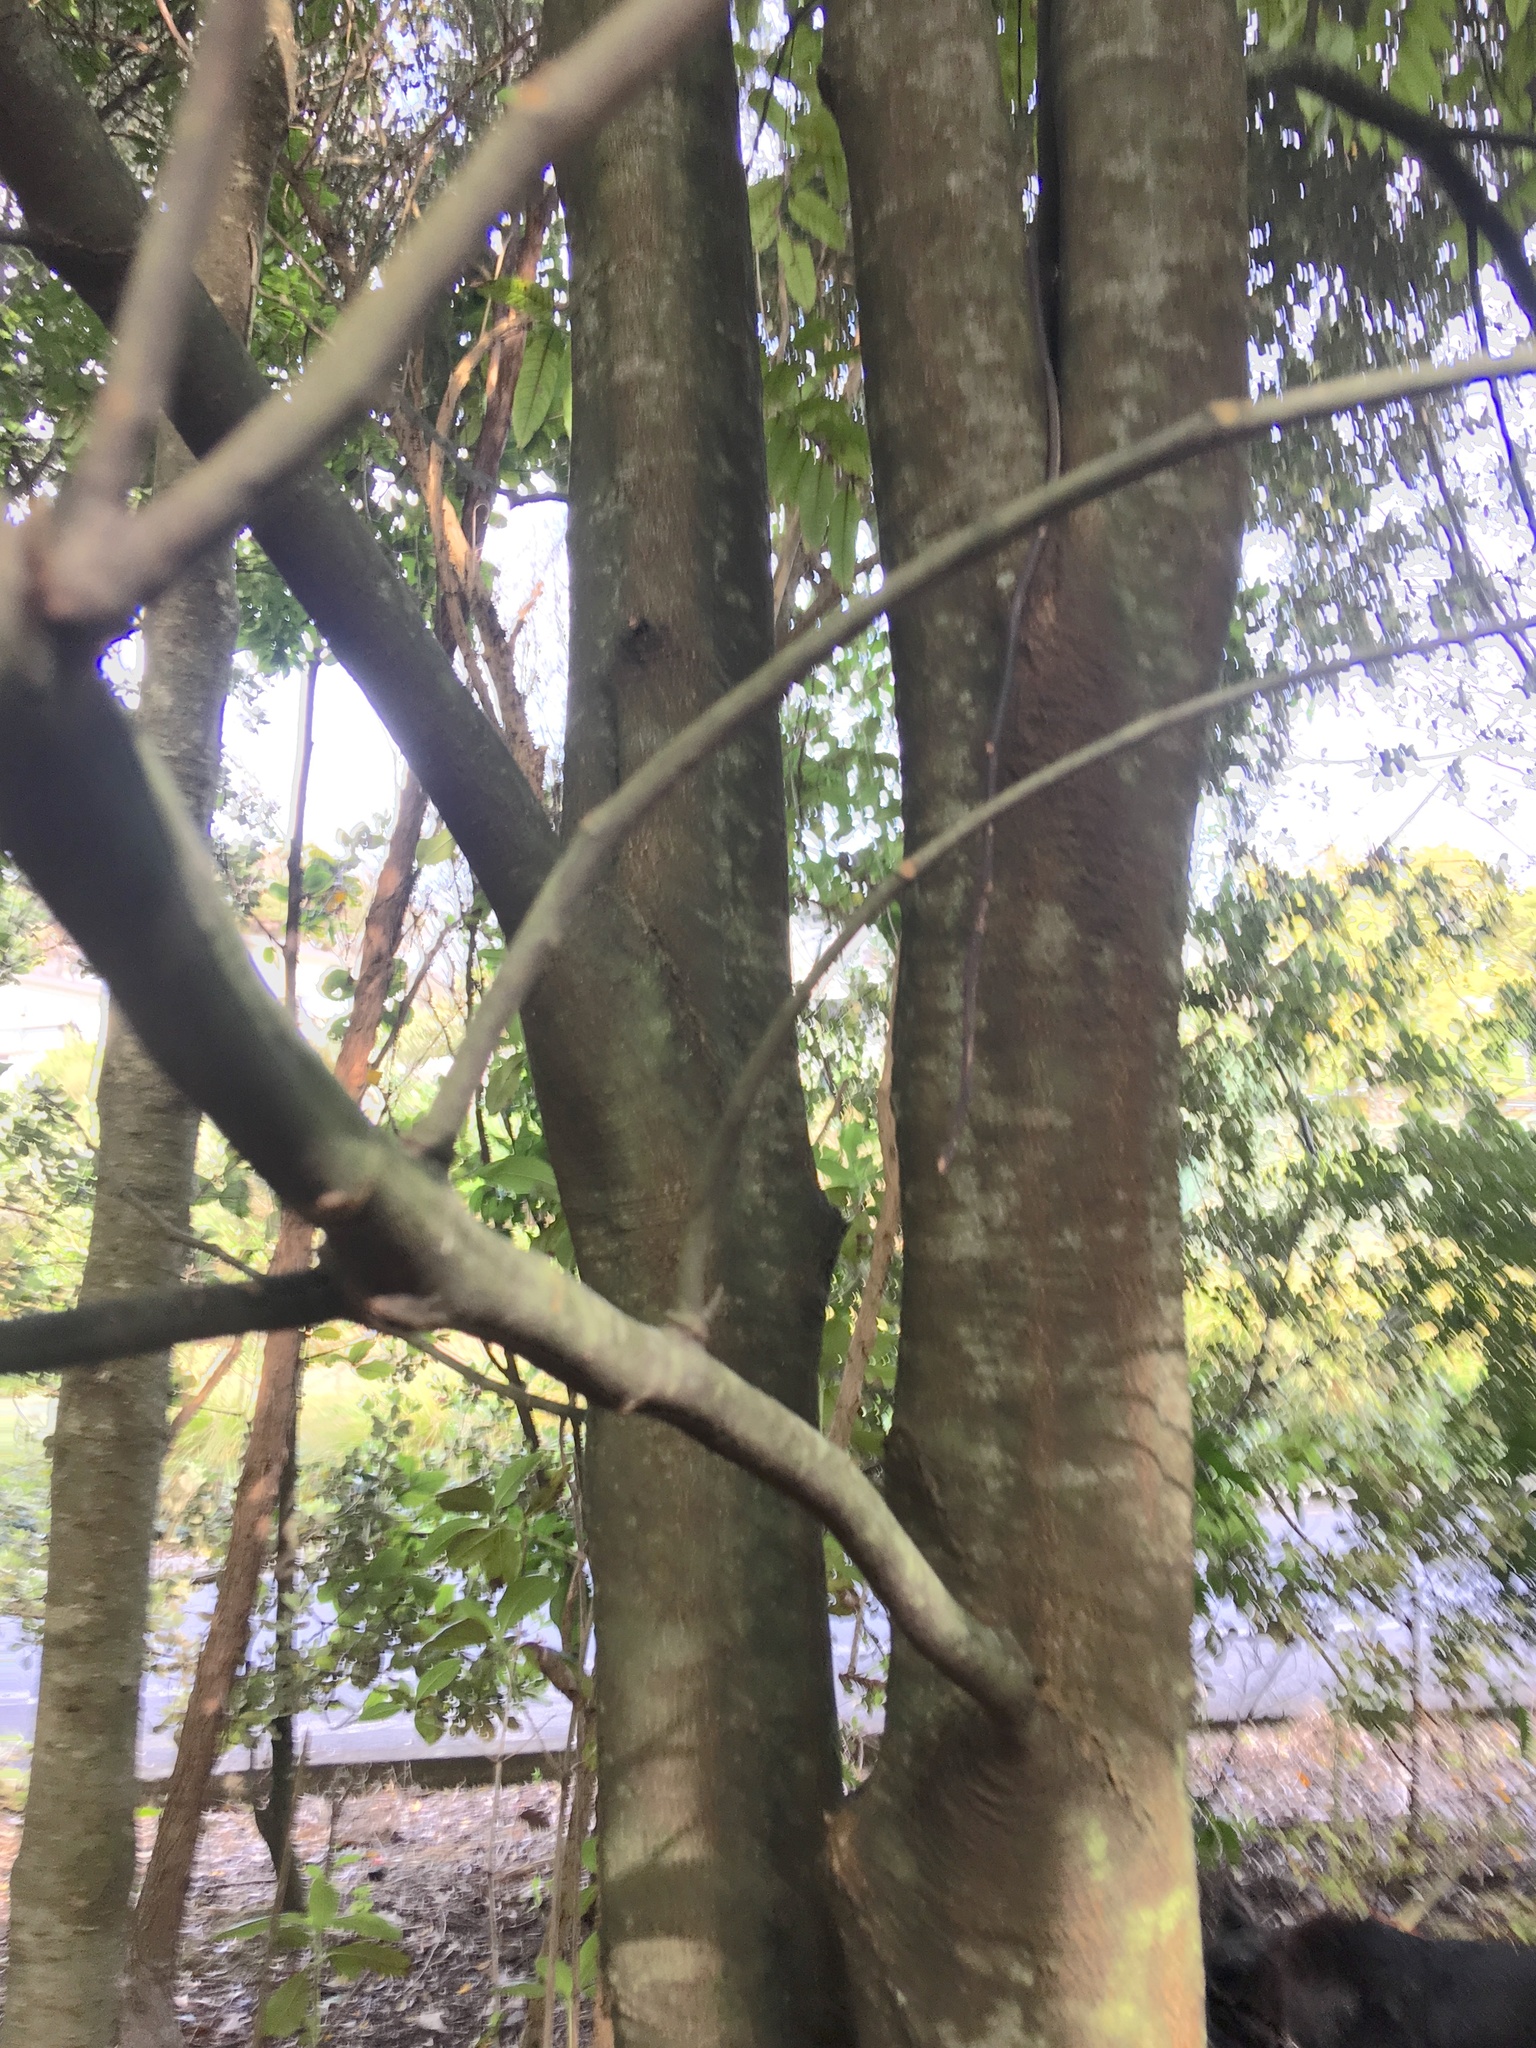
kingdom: Plantae
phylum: Tracheophyta
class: Magnoliopsida
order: Sapindales
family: Sapindaceae
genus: Alectryon
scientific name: Alectryon excelsus
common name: Three kings titoki
